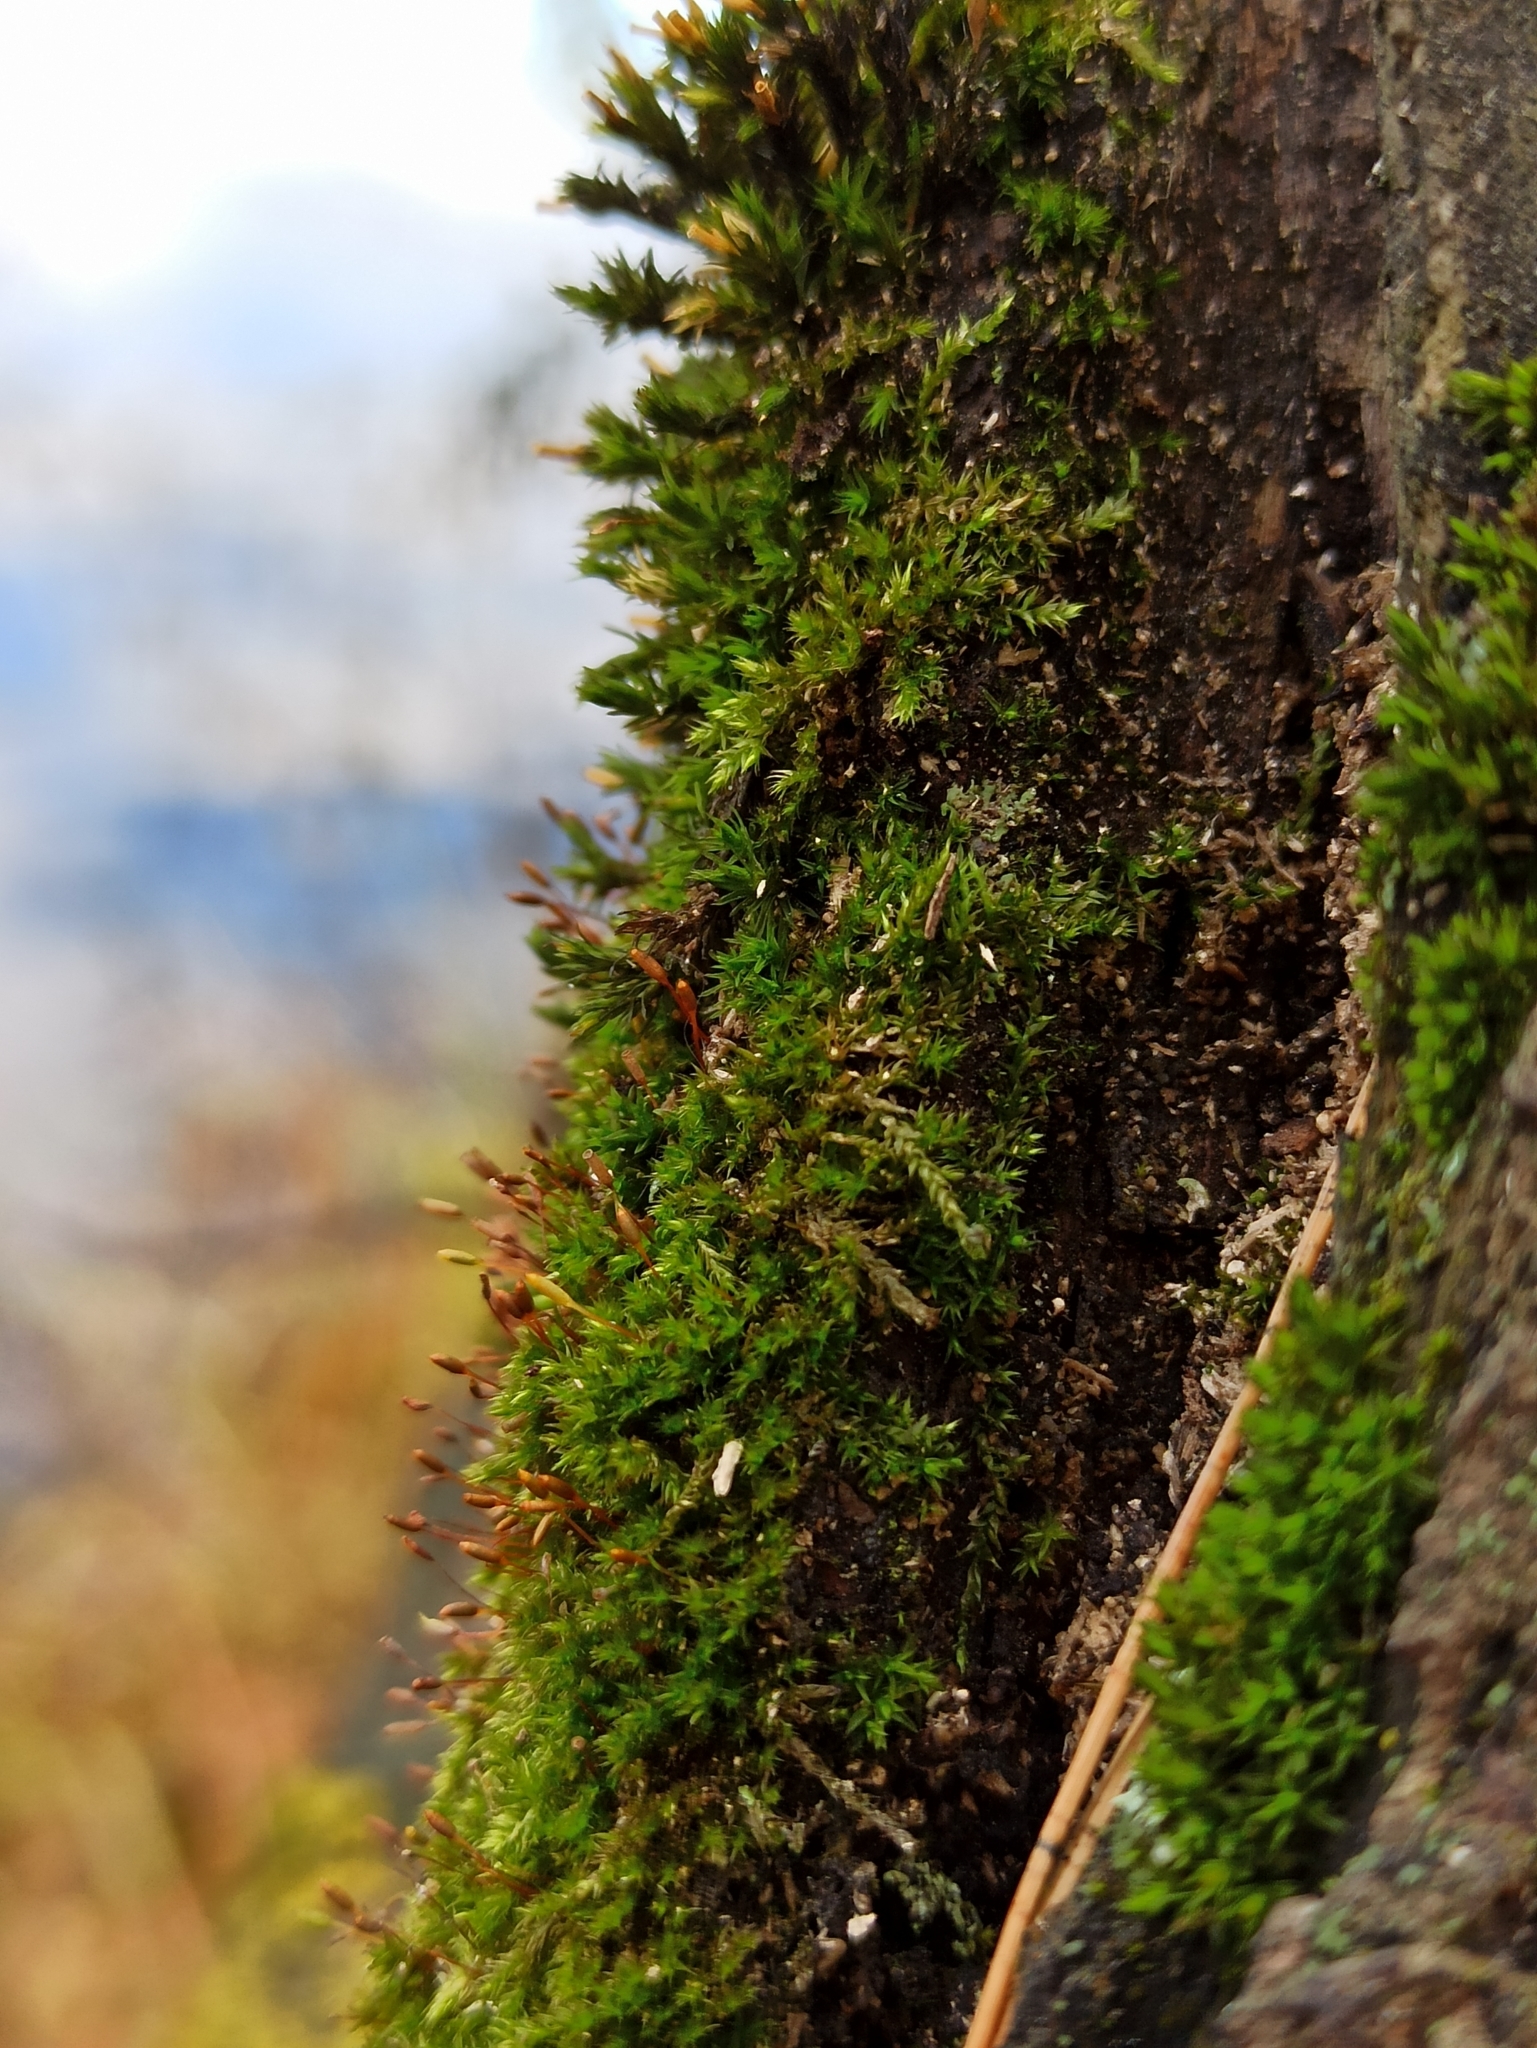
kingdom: Plantae
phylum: Bryophyta
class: Bryopsida
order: Hypnales
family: Pylaisiaceae
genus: Pylaisia
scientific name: Pylaisia polyantha
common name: Many-flowered leskea
